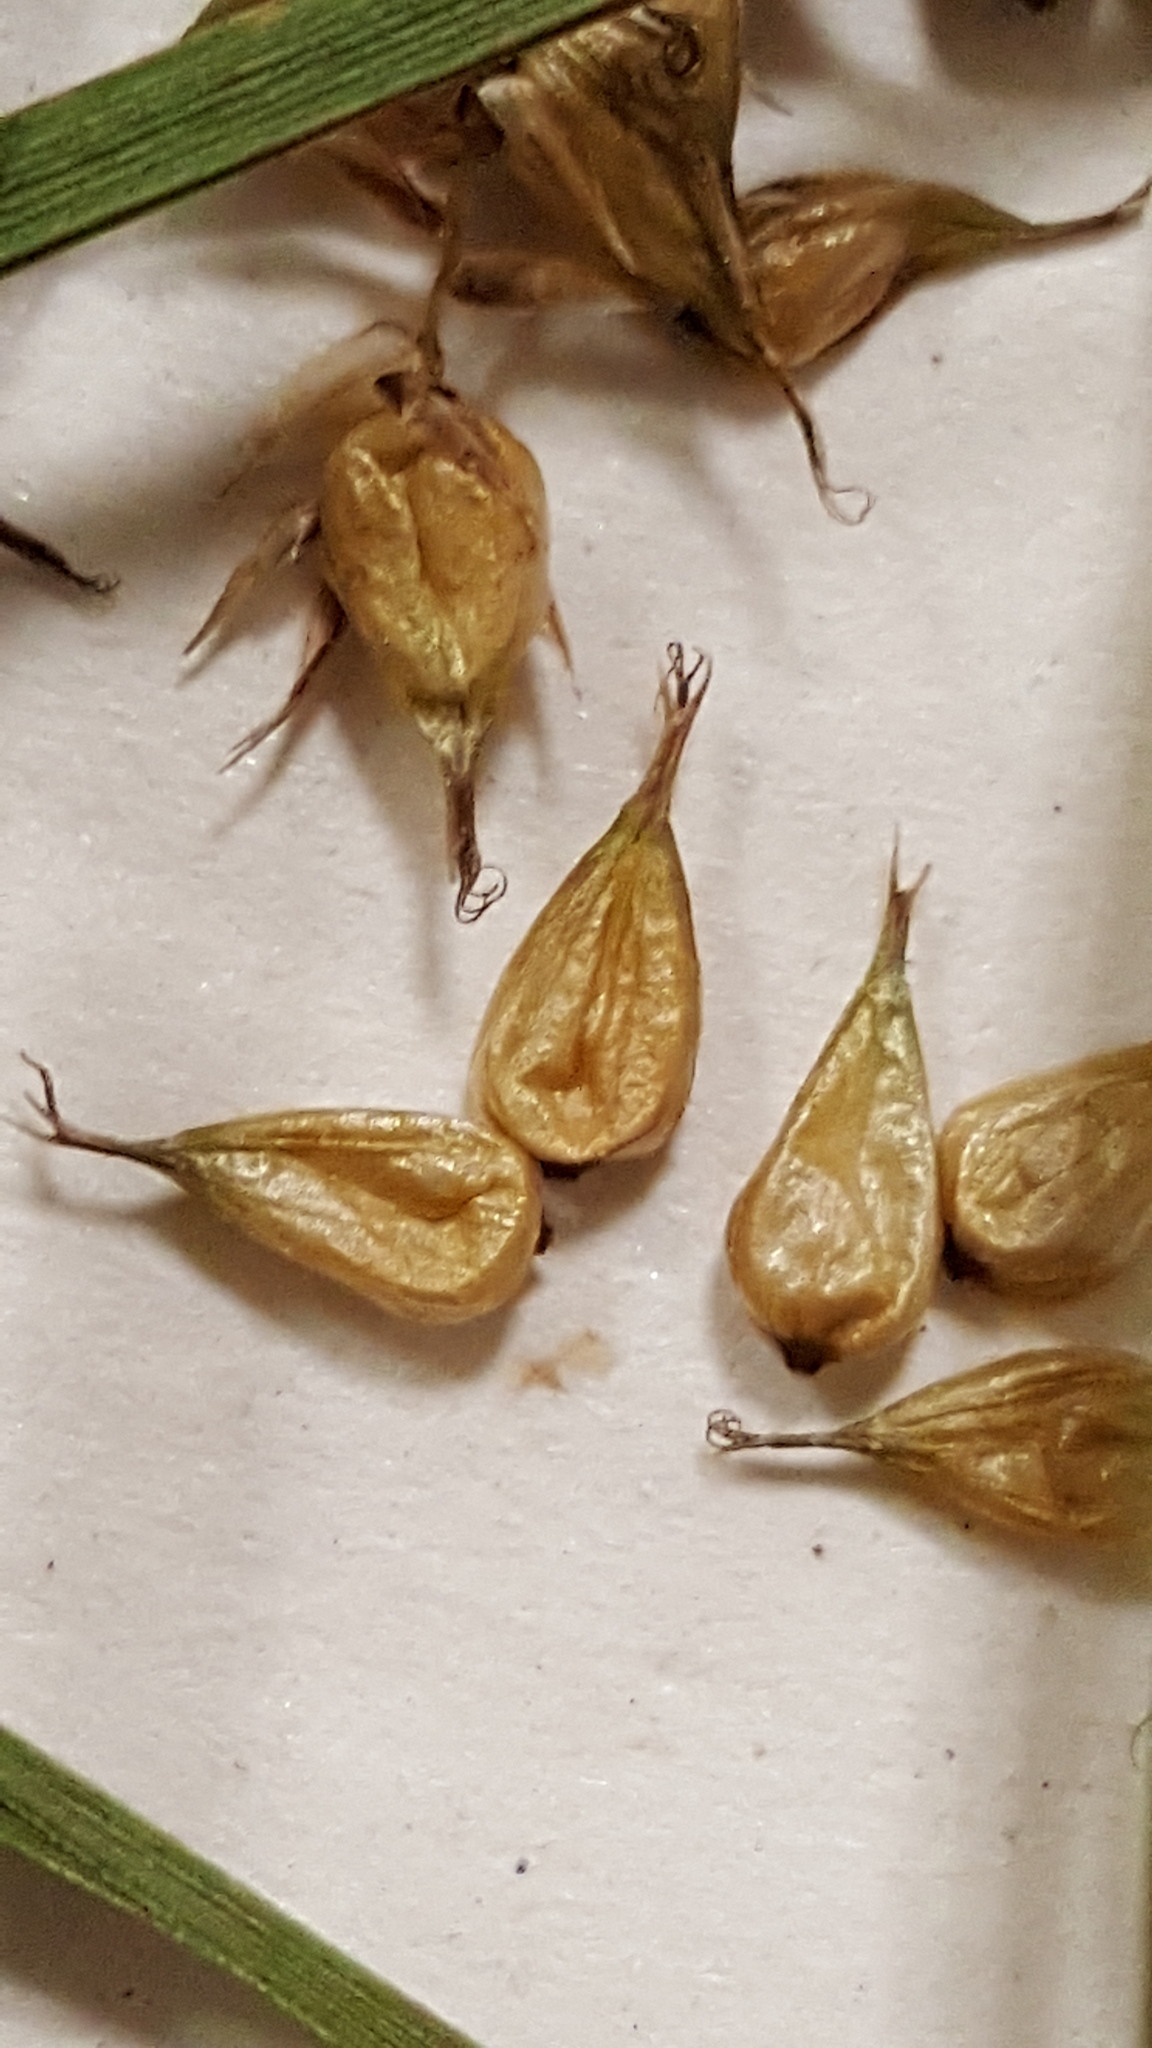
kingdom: Plantae
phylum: Tracheophyta
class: Liliopsida
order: Poales
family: Cyperaceae
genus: Carex
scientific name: Carex vesicaria
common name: Bladder-sedge
